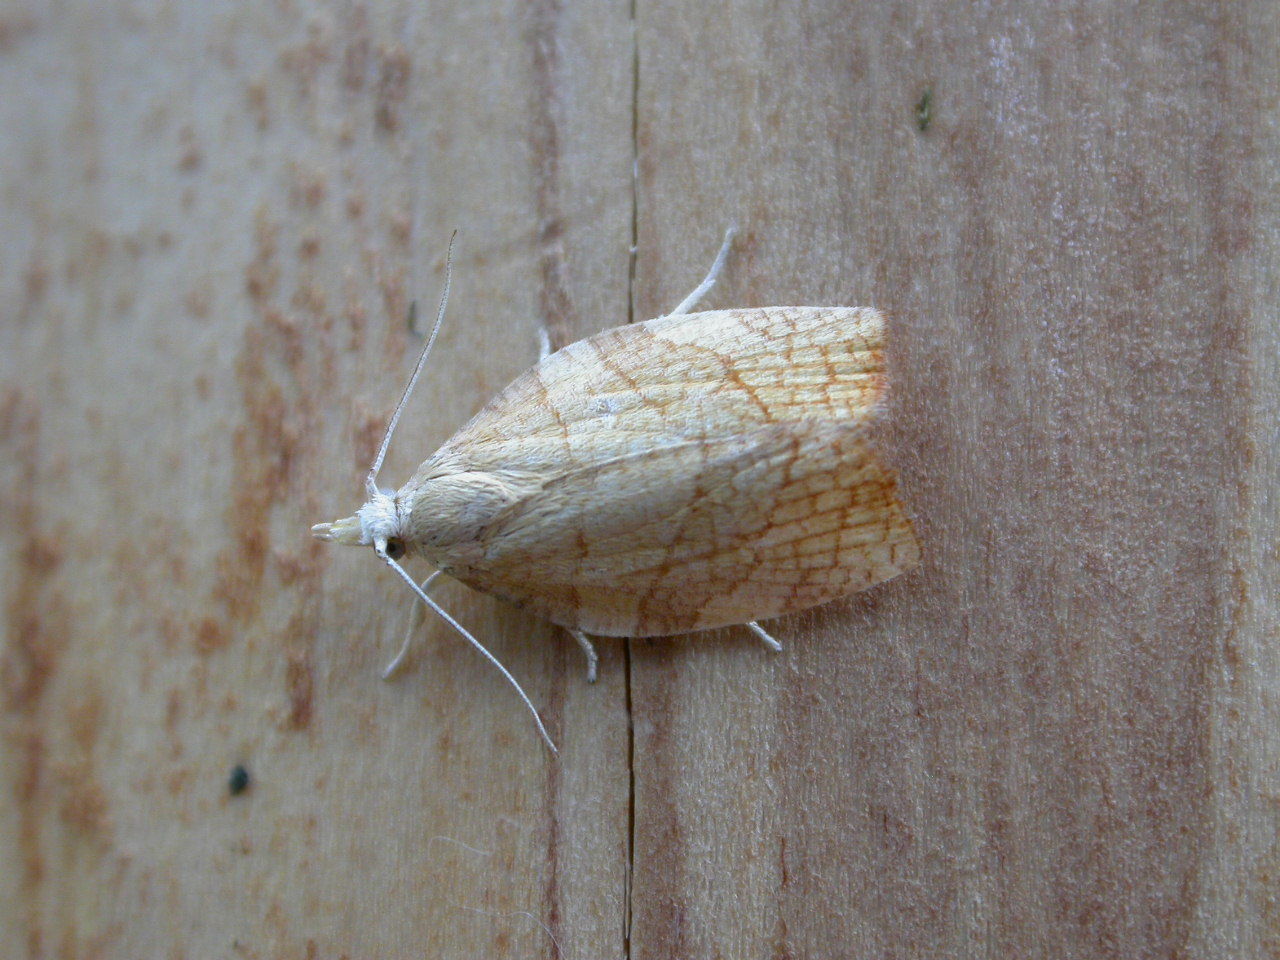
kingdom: Animalia
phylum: Arthropoda
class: Insecta
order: Lepidoptera
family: Tortricidae
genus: Pandemis
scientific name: Pandemis corylana
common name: Chequered fruit-tree tortrix
